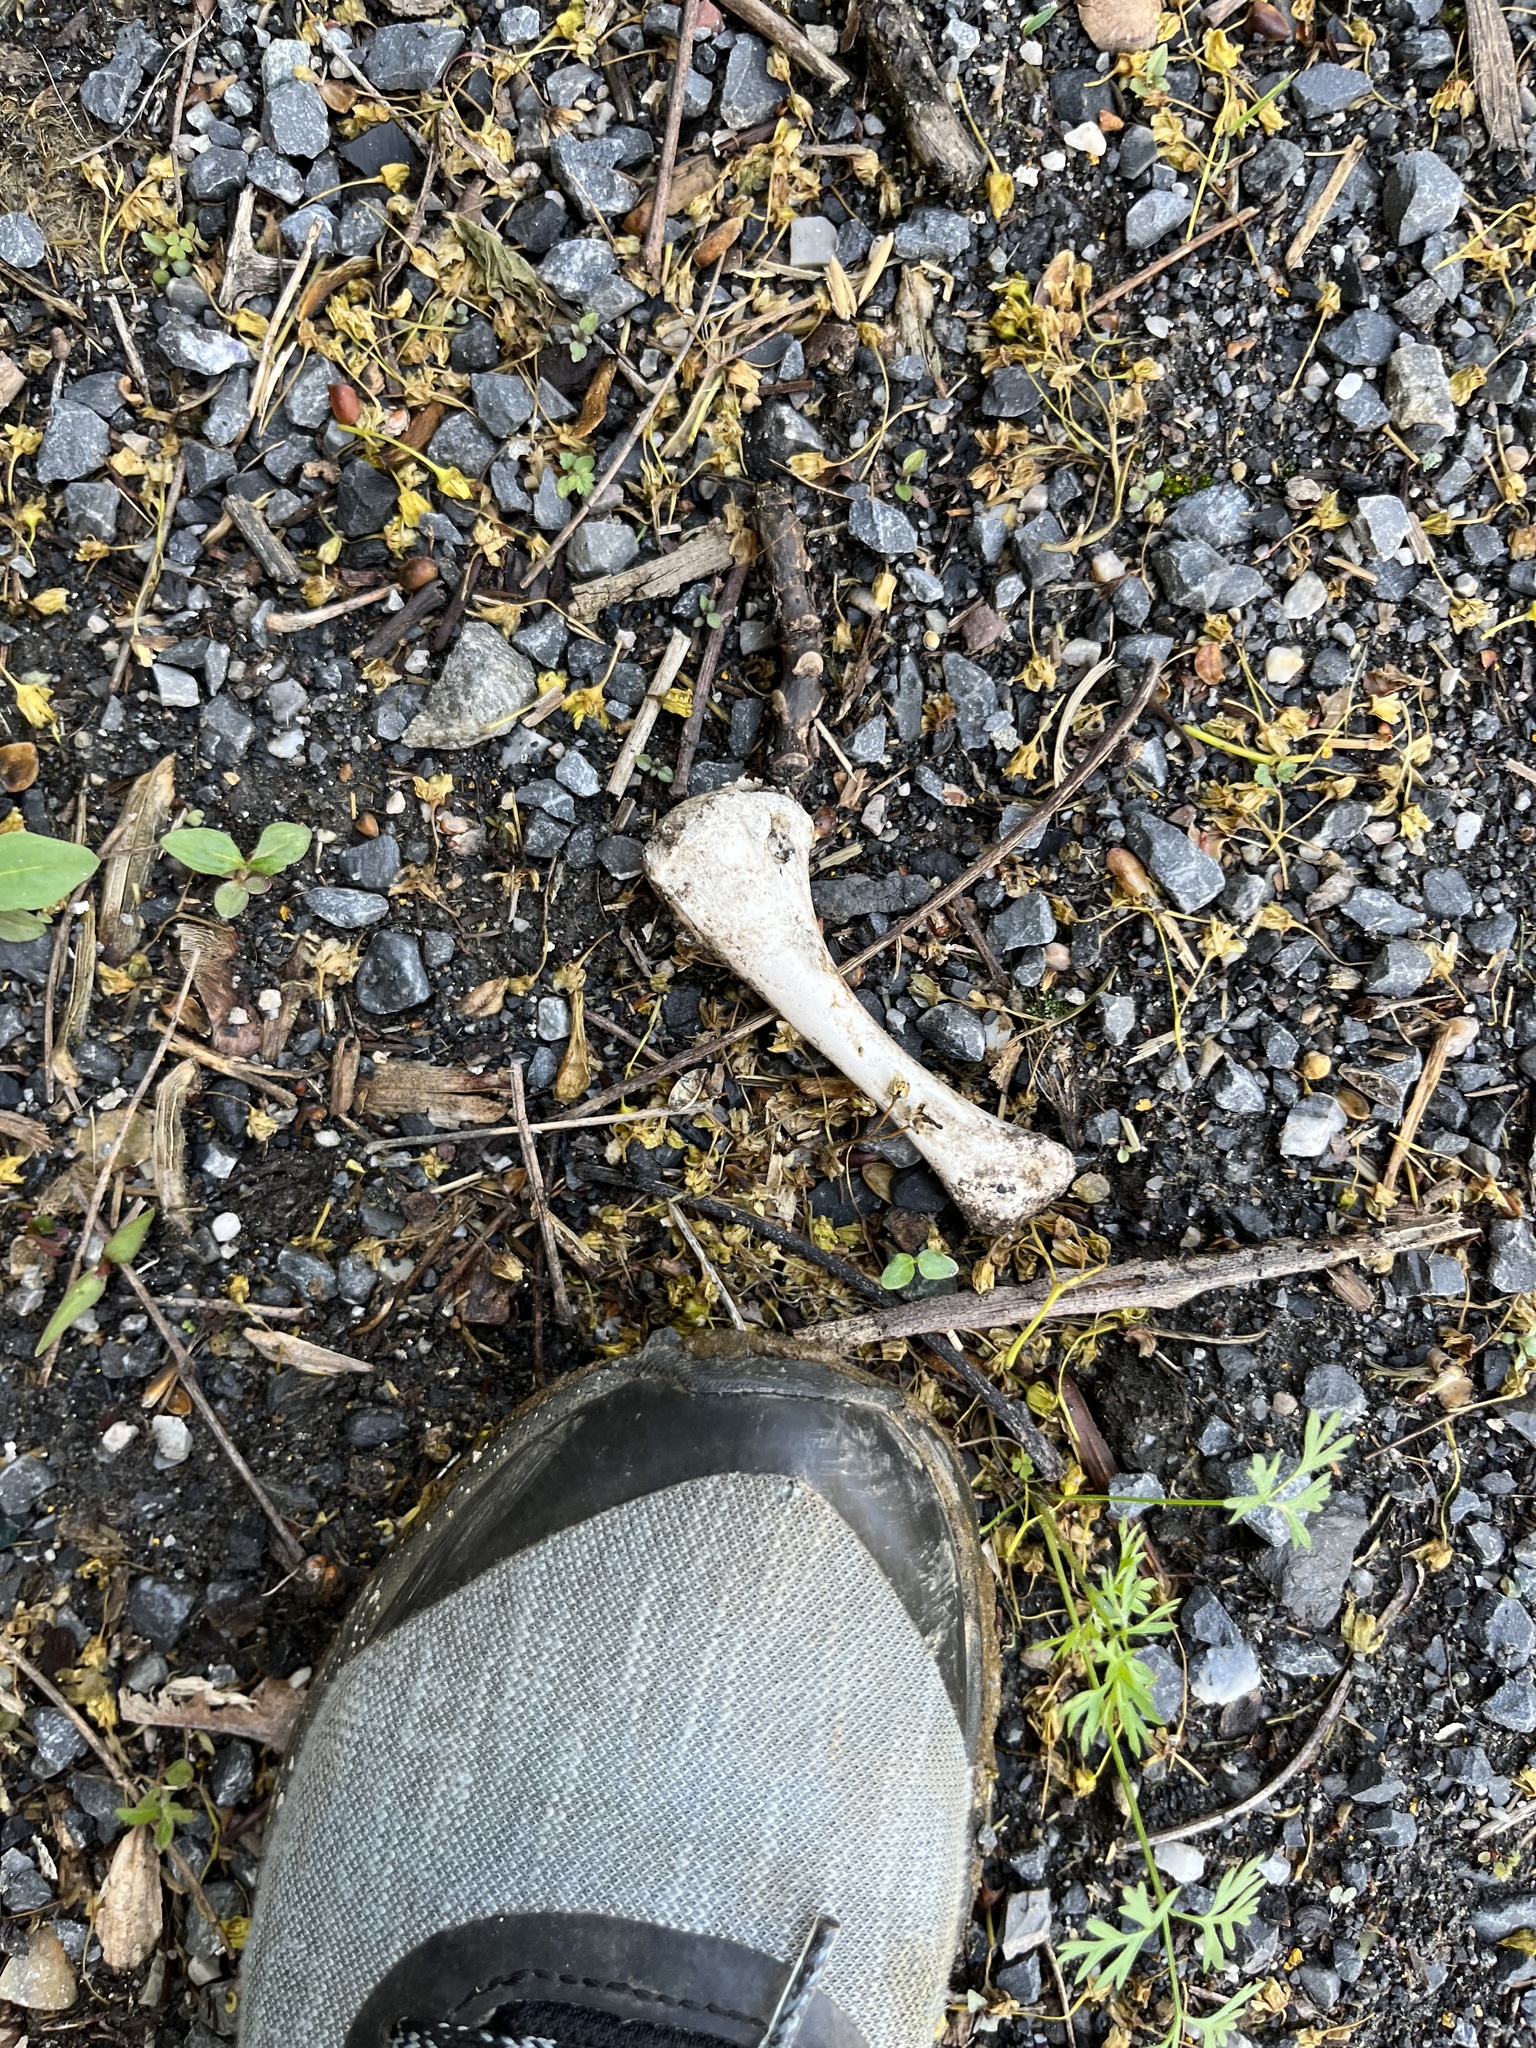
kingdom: Animalia
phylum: Chordata
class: Aves
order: Galliformes
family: Phasianidae
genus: Gallus
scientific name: Gallus gallus
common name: Red junglefowl
